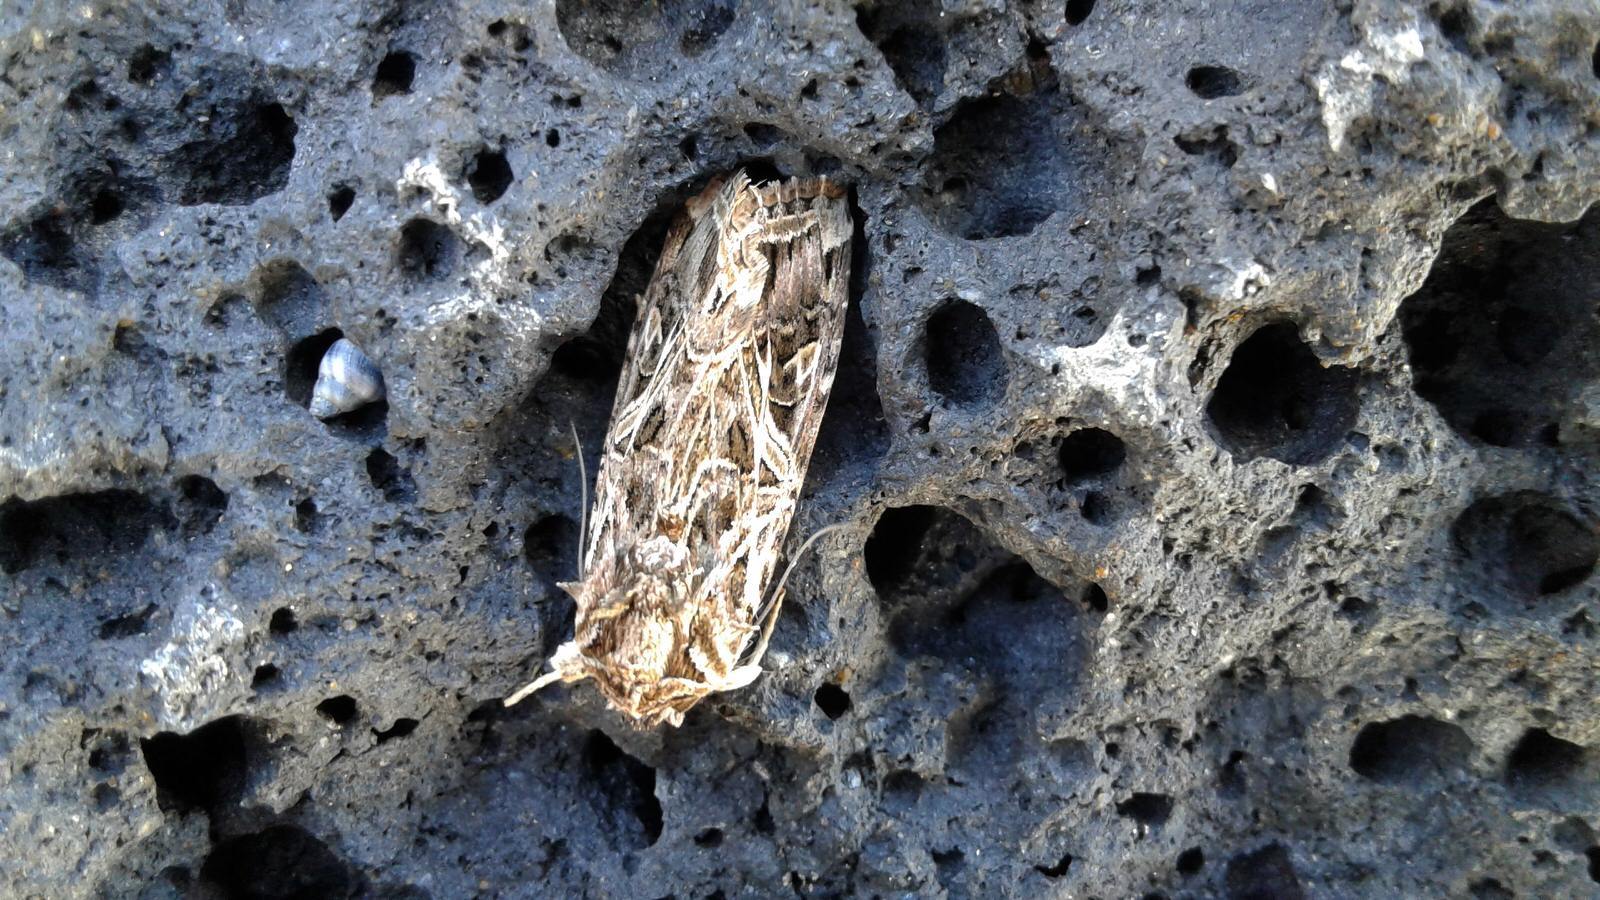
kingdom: Animalia
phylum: Arthropoda
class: Insecta
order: Lepidoptera
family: Noctuidae
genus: Spodoptera
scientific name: Spodoptera litura
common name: Asian cotton leafworm
